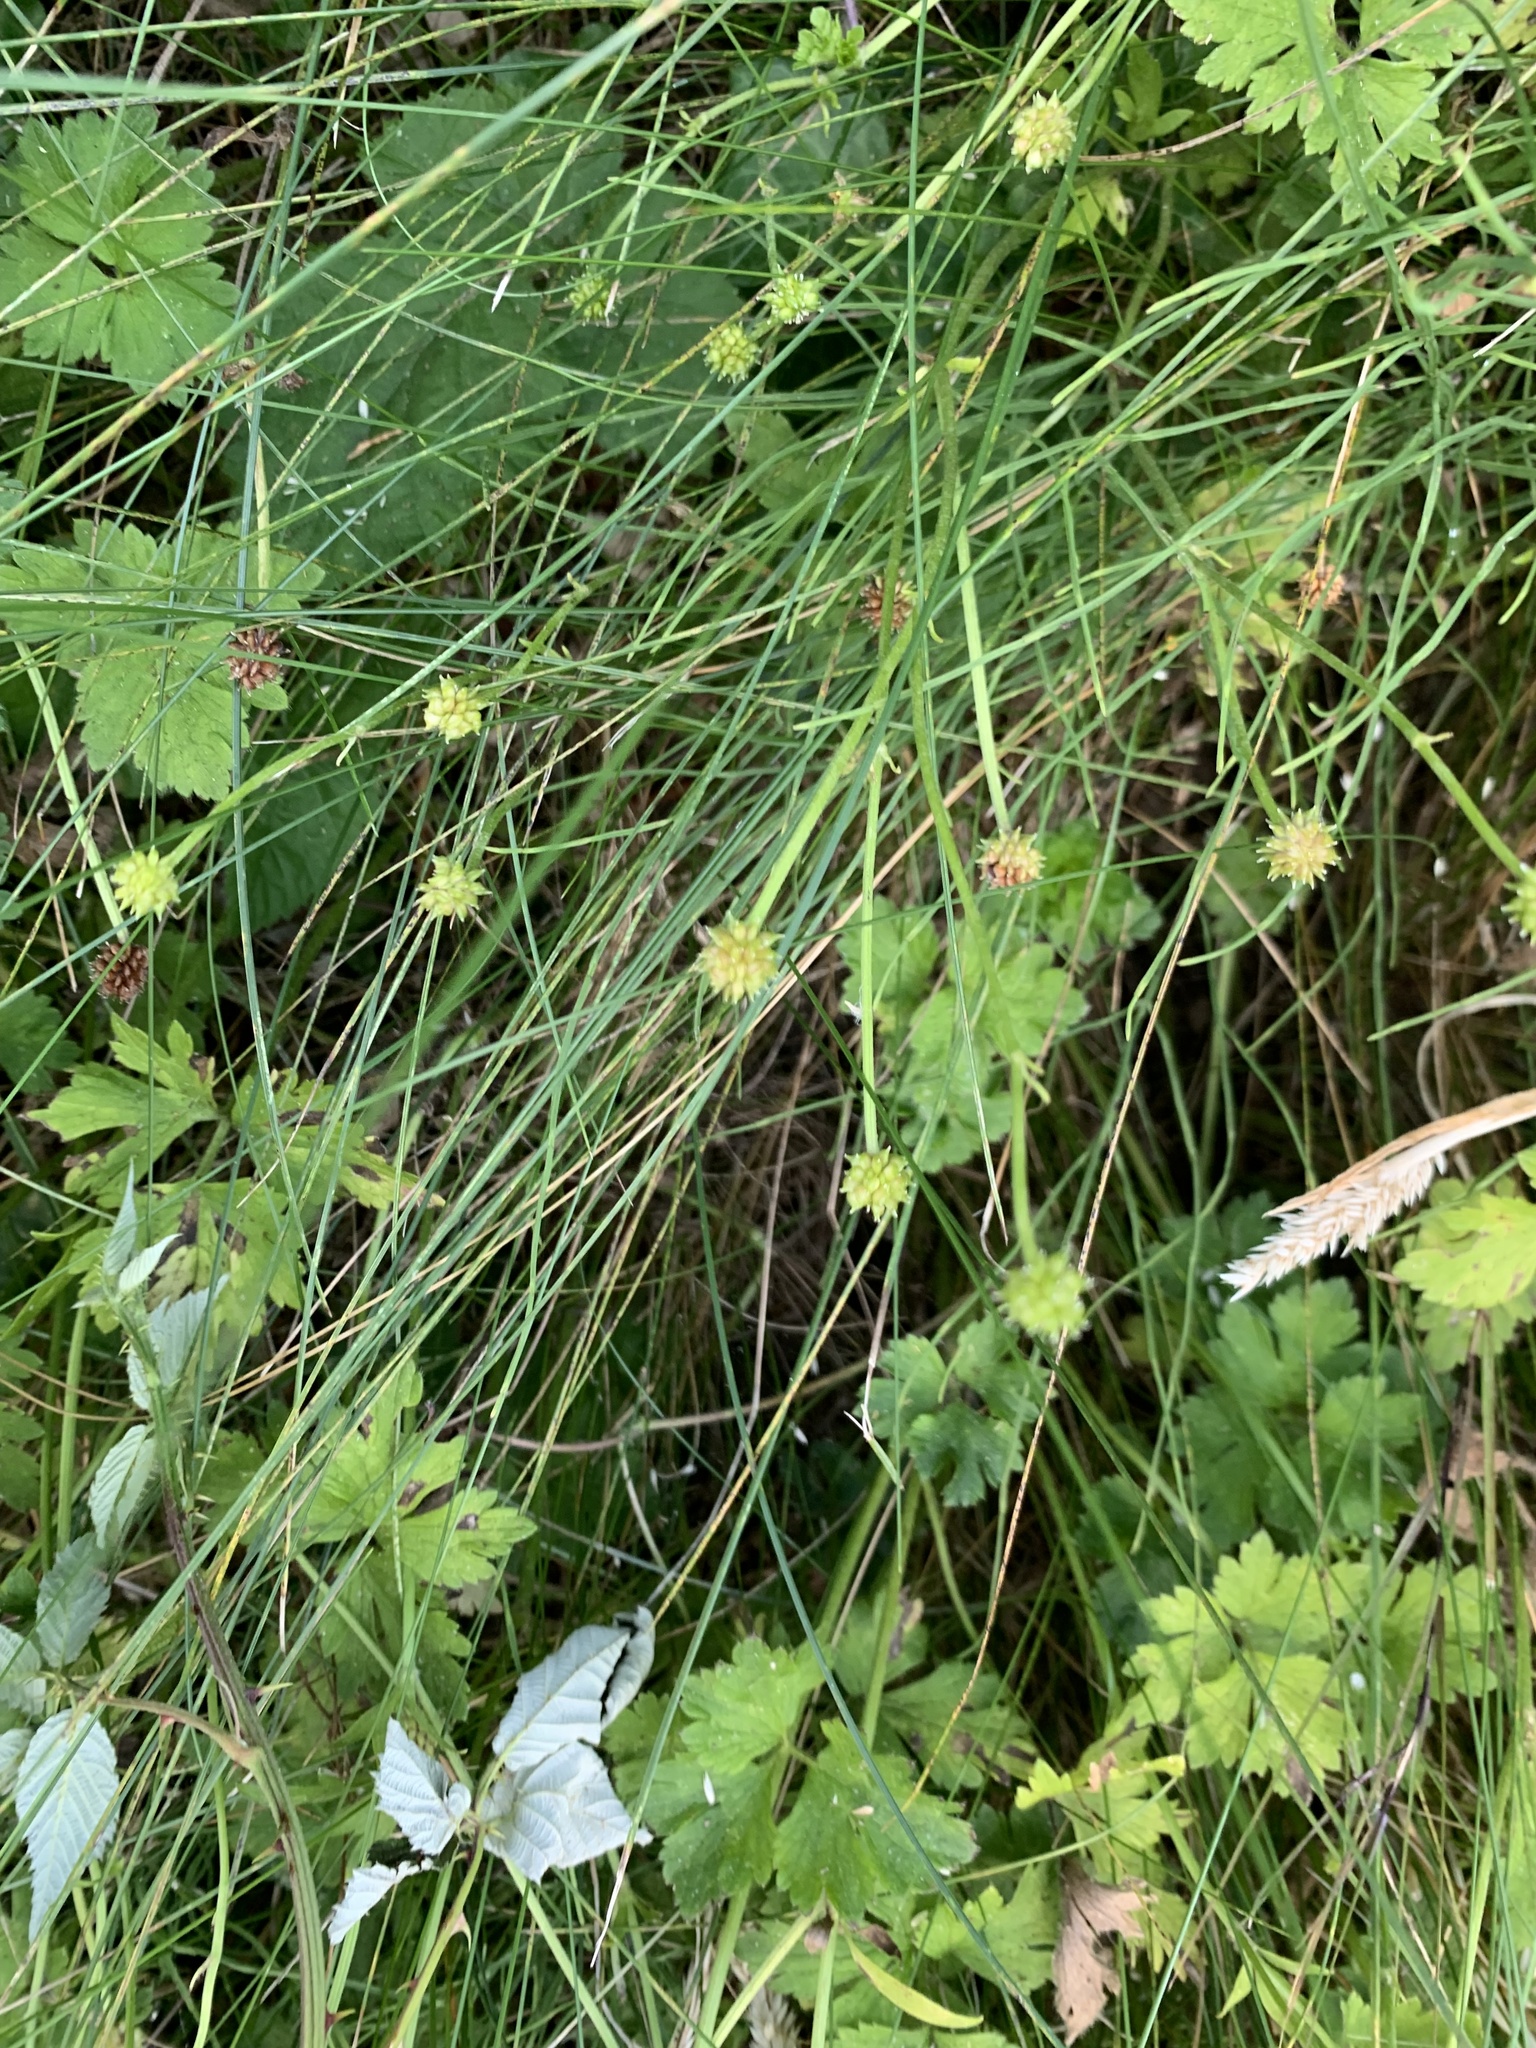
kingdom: Plantae
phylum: Tracheophyta
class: Magnoliopsida
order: Ranunculales
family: Ranunculaceae
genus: Ranunculus
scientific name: Ranunculus repens
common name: Creeping buttercup
